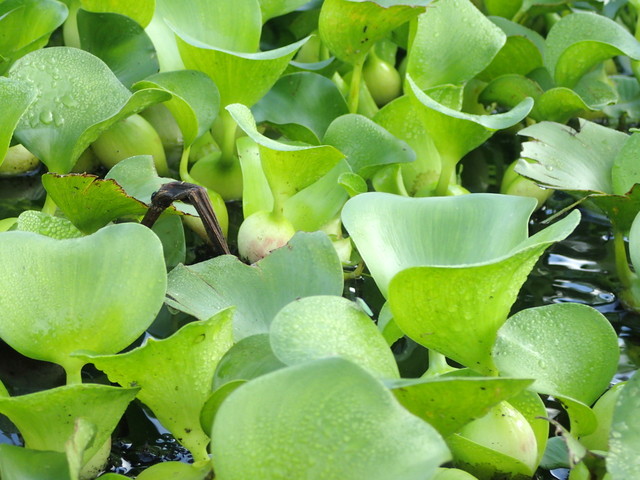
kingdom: Plantae
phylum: Tracheophyta
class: Liliopsida
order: Commelinales
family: Pontederiaceae
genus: Pontederia
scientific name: Pontederia crassipes
